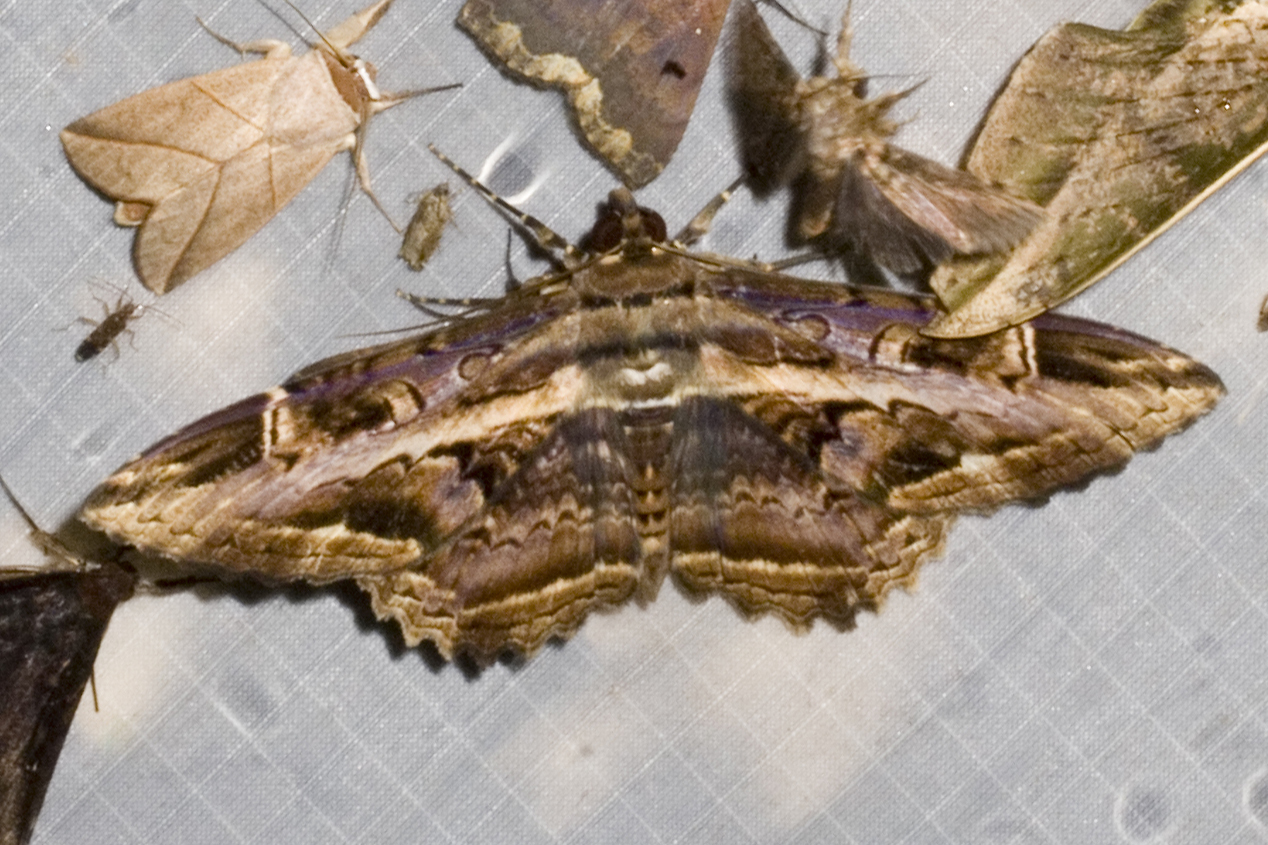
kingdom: Animalia
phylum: Arthropoda
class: Insecta
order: Lepidoptera
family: Noctuidae
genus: Ronania
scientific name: Ronania
